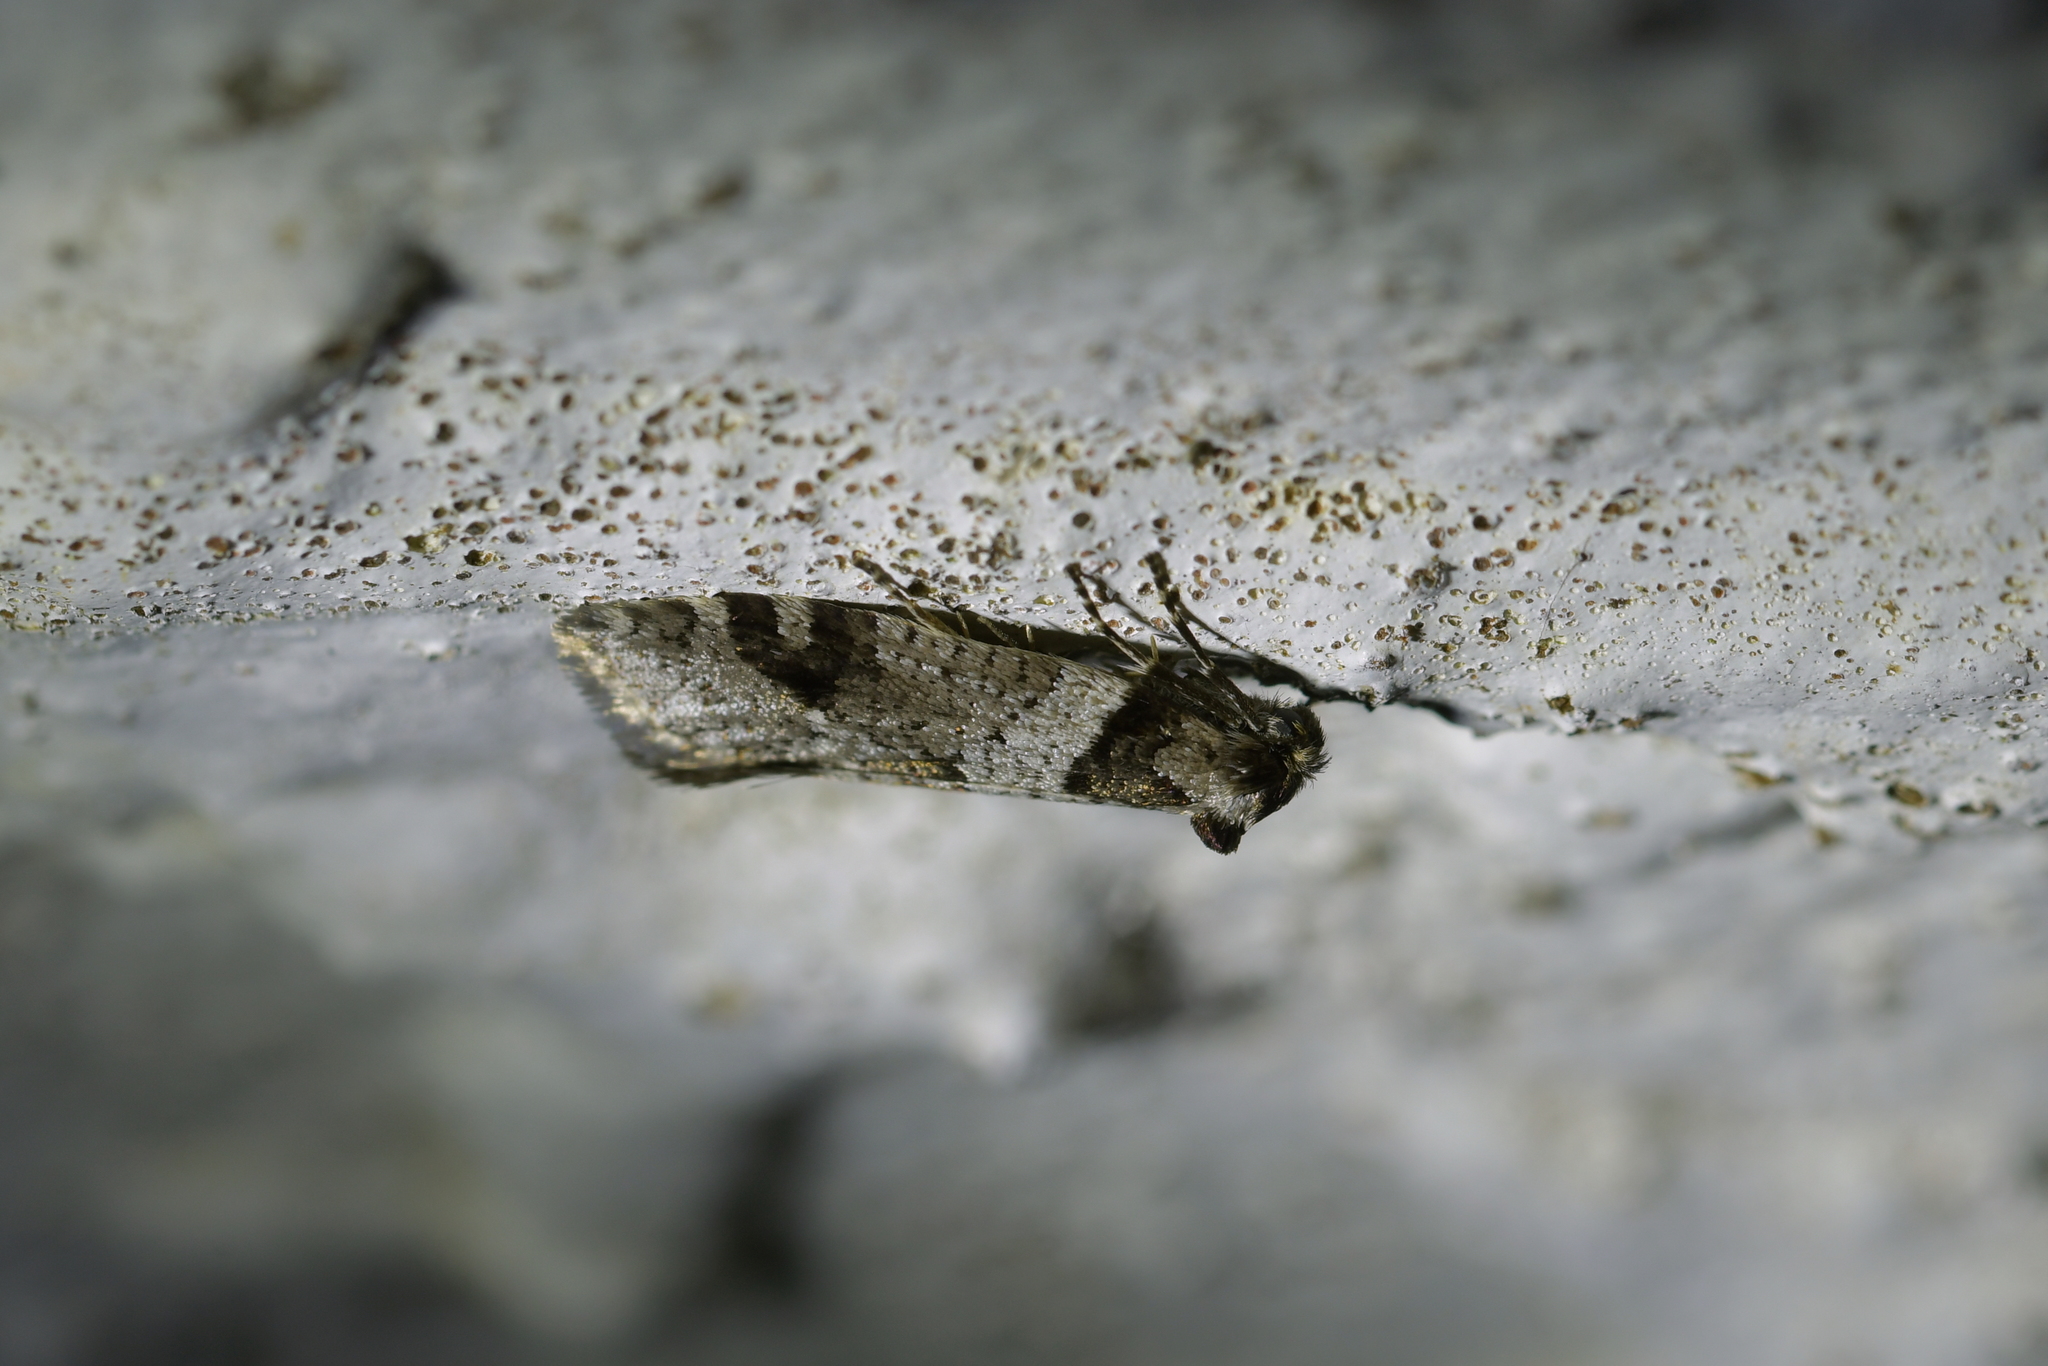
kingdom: Animalia
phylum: Arthropoda
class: Insecta
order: Lepidoptera
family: Psychidae
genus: Lepidoscia
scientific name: Lepidoscia heliochares
